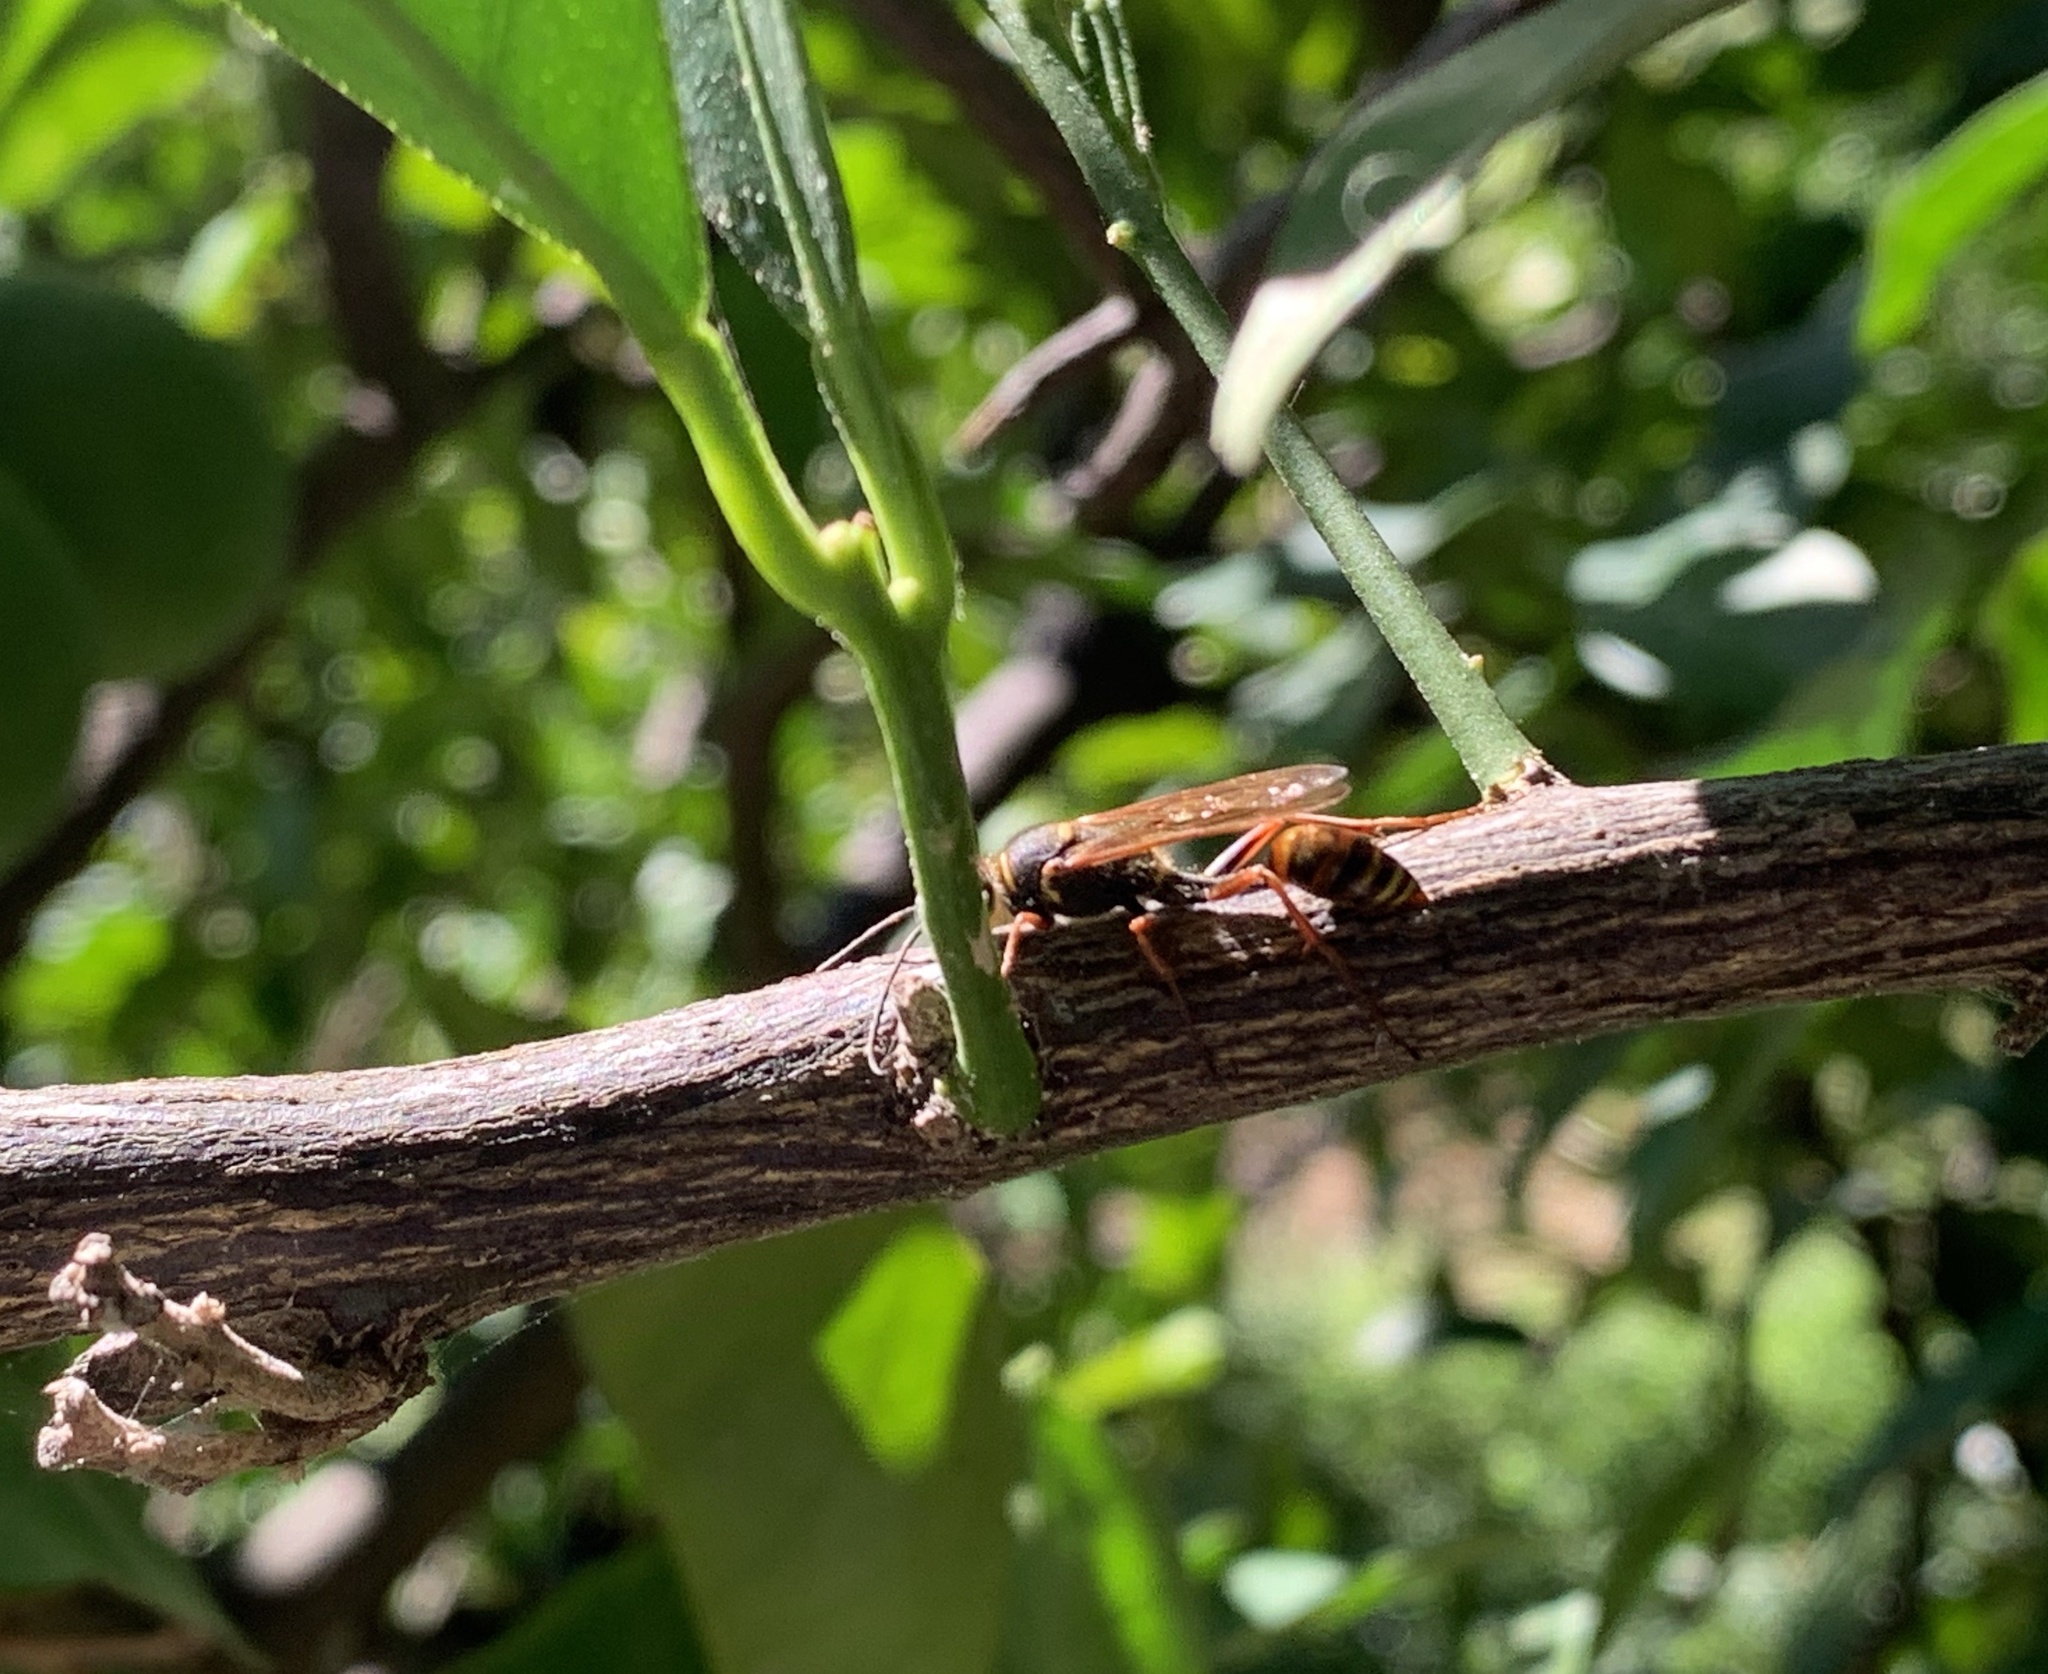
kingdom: Animalia
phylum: Arthropoda
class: Insecta
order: Hymenoptera
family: Sphecidae
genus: Sceliphron
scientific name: Sceliphron curvatum
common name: Pèlopèe
